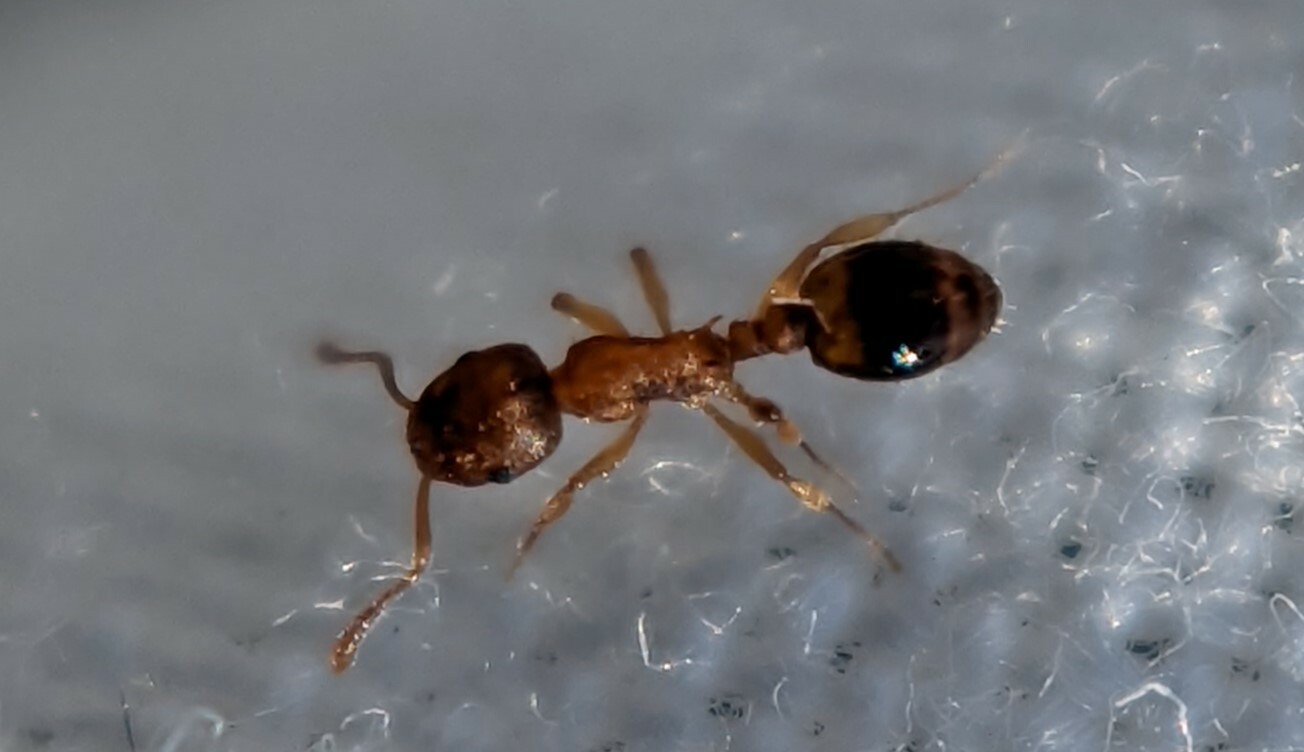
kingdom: Animalia
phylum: Arthropoda
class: Insecta
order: Hymenoptera
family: Formicidae
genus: Leptothorax
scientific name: Leptothorax nylanderi
